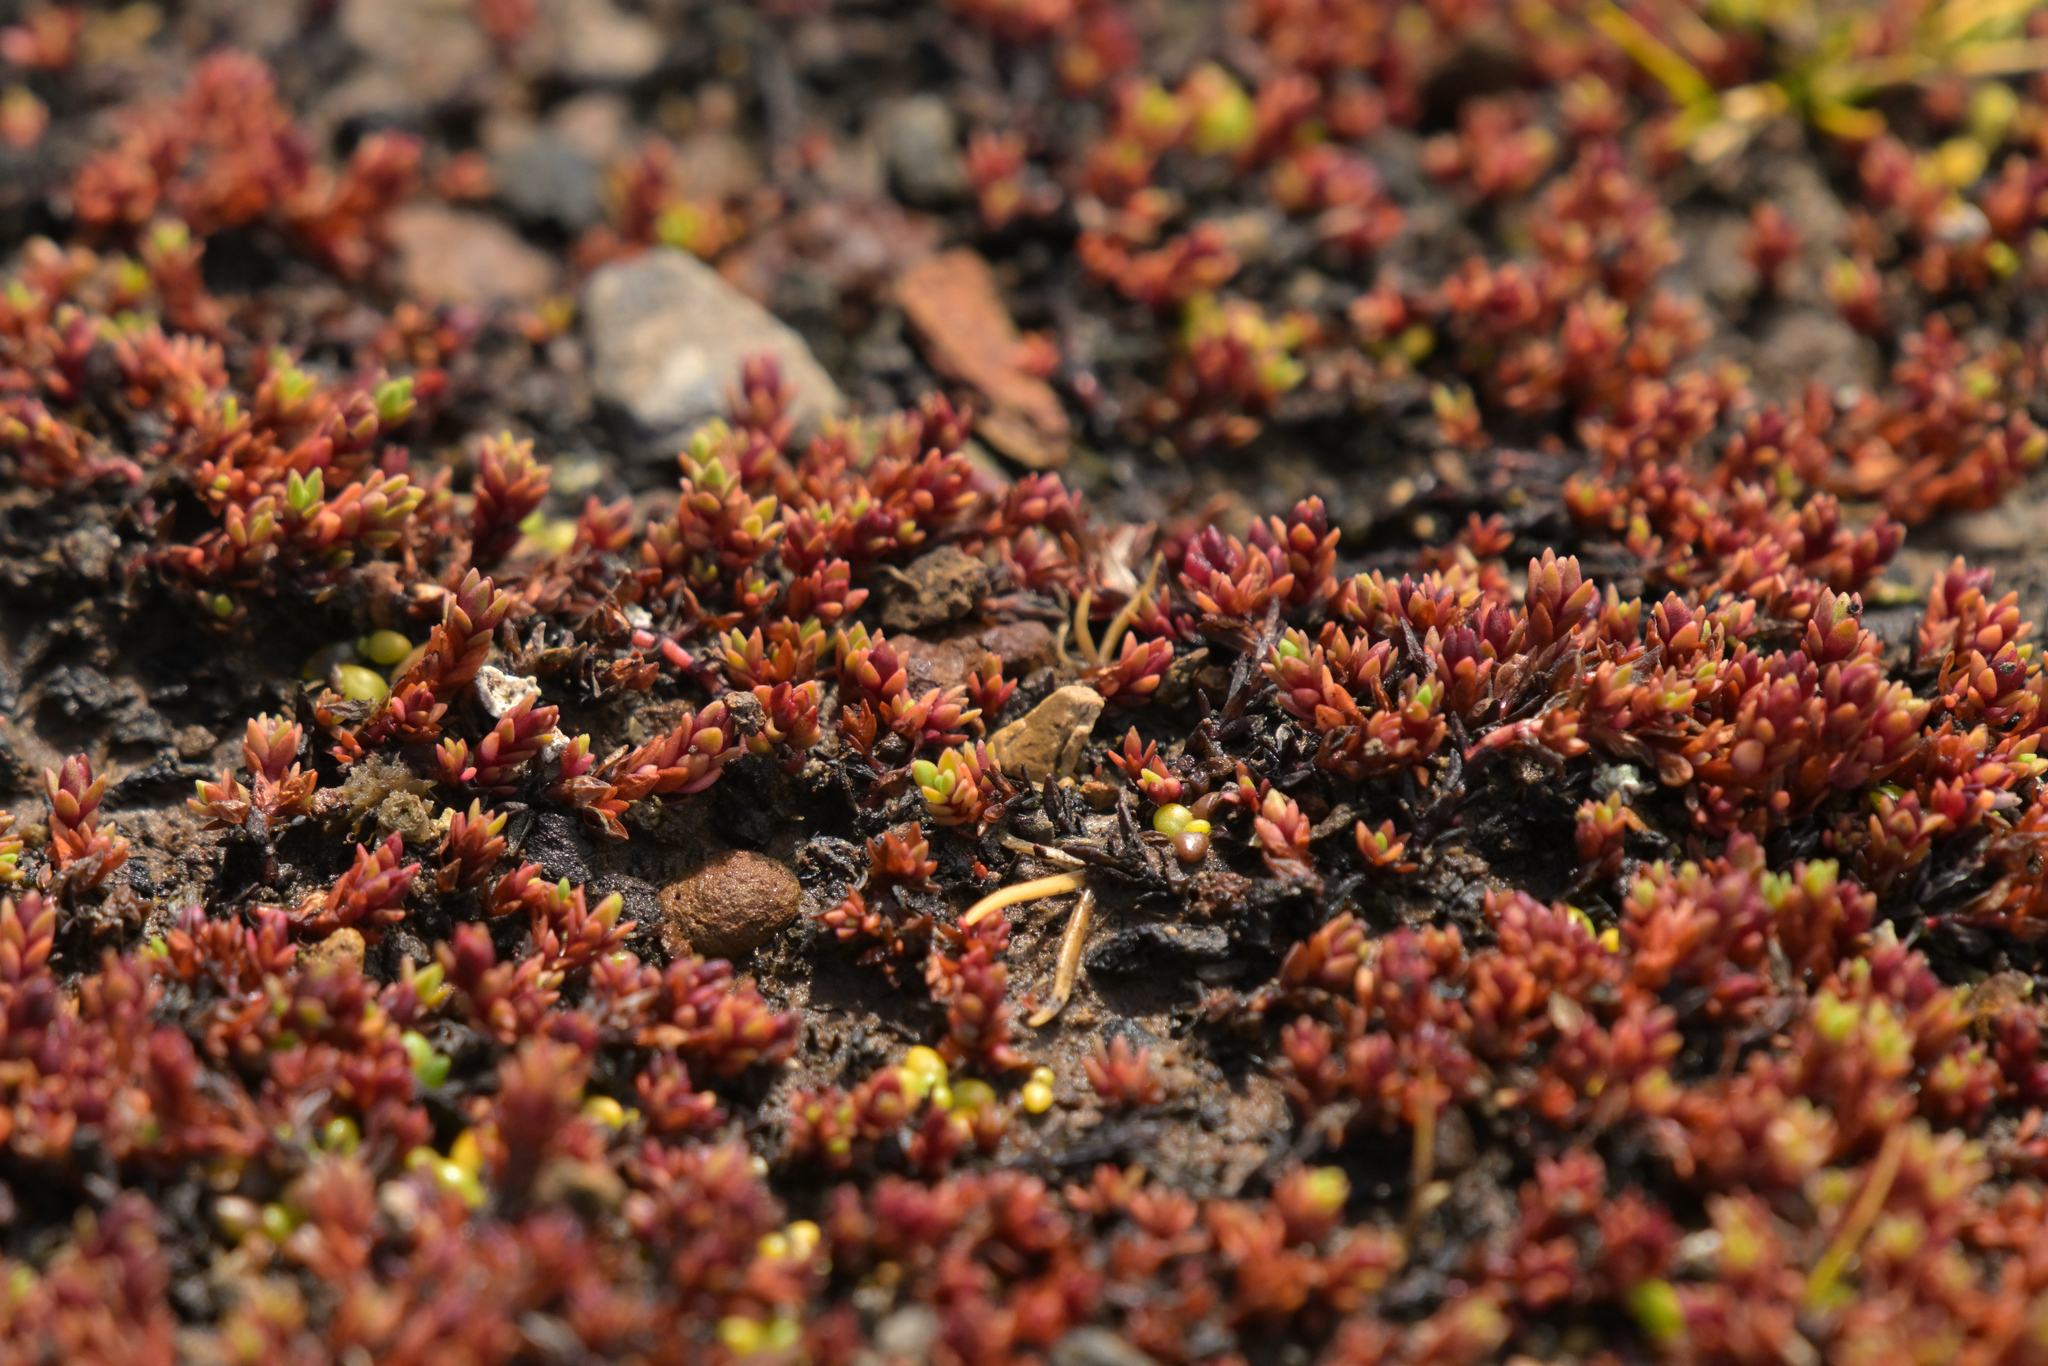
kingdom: Plantae
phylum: Tracheophyta
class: Magnoliopsida
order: Saxifragales
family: Crassulaceae
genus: Crassula
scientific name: Crassula moschata
